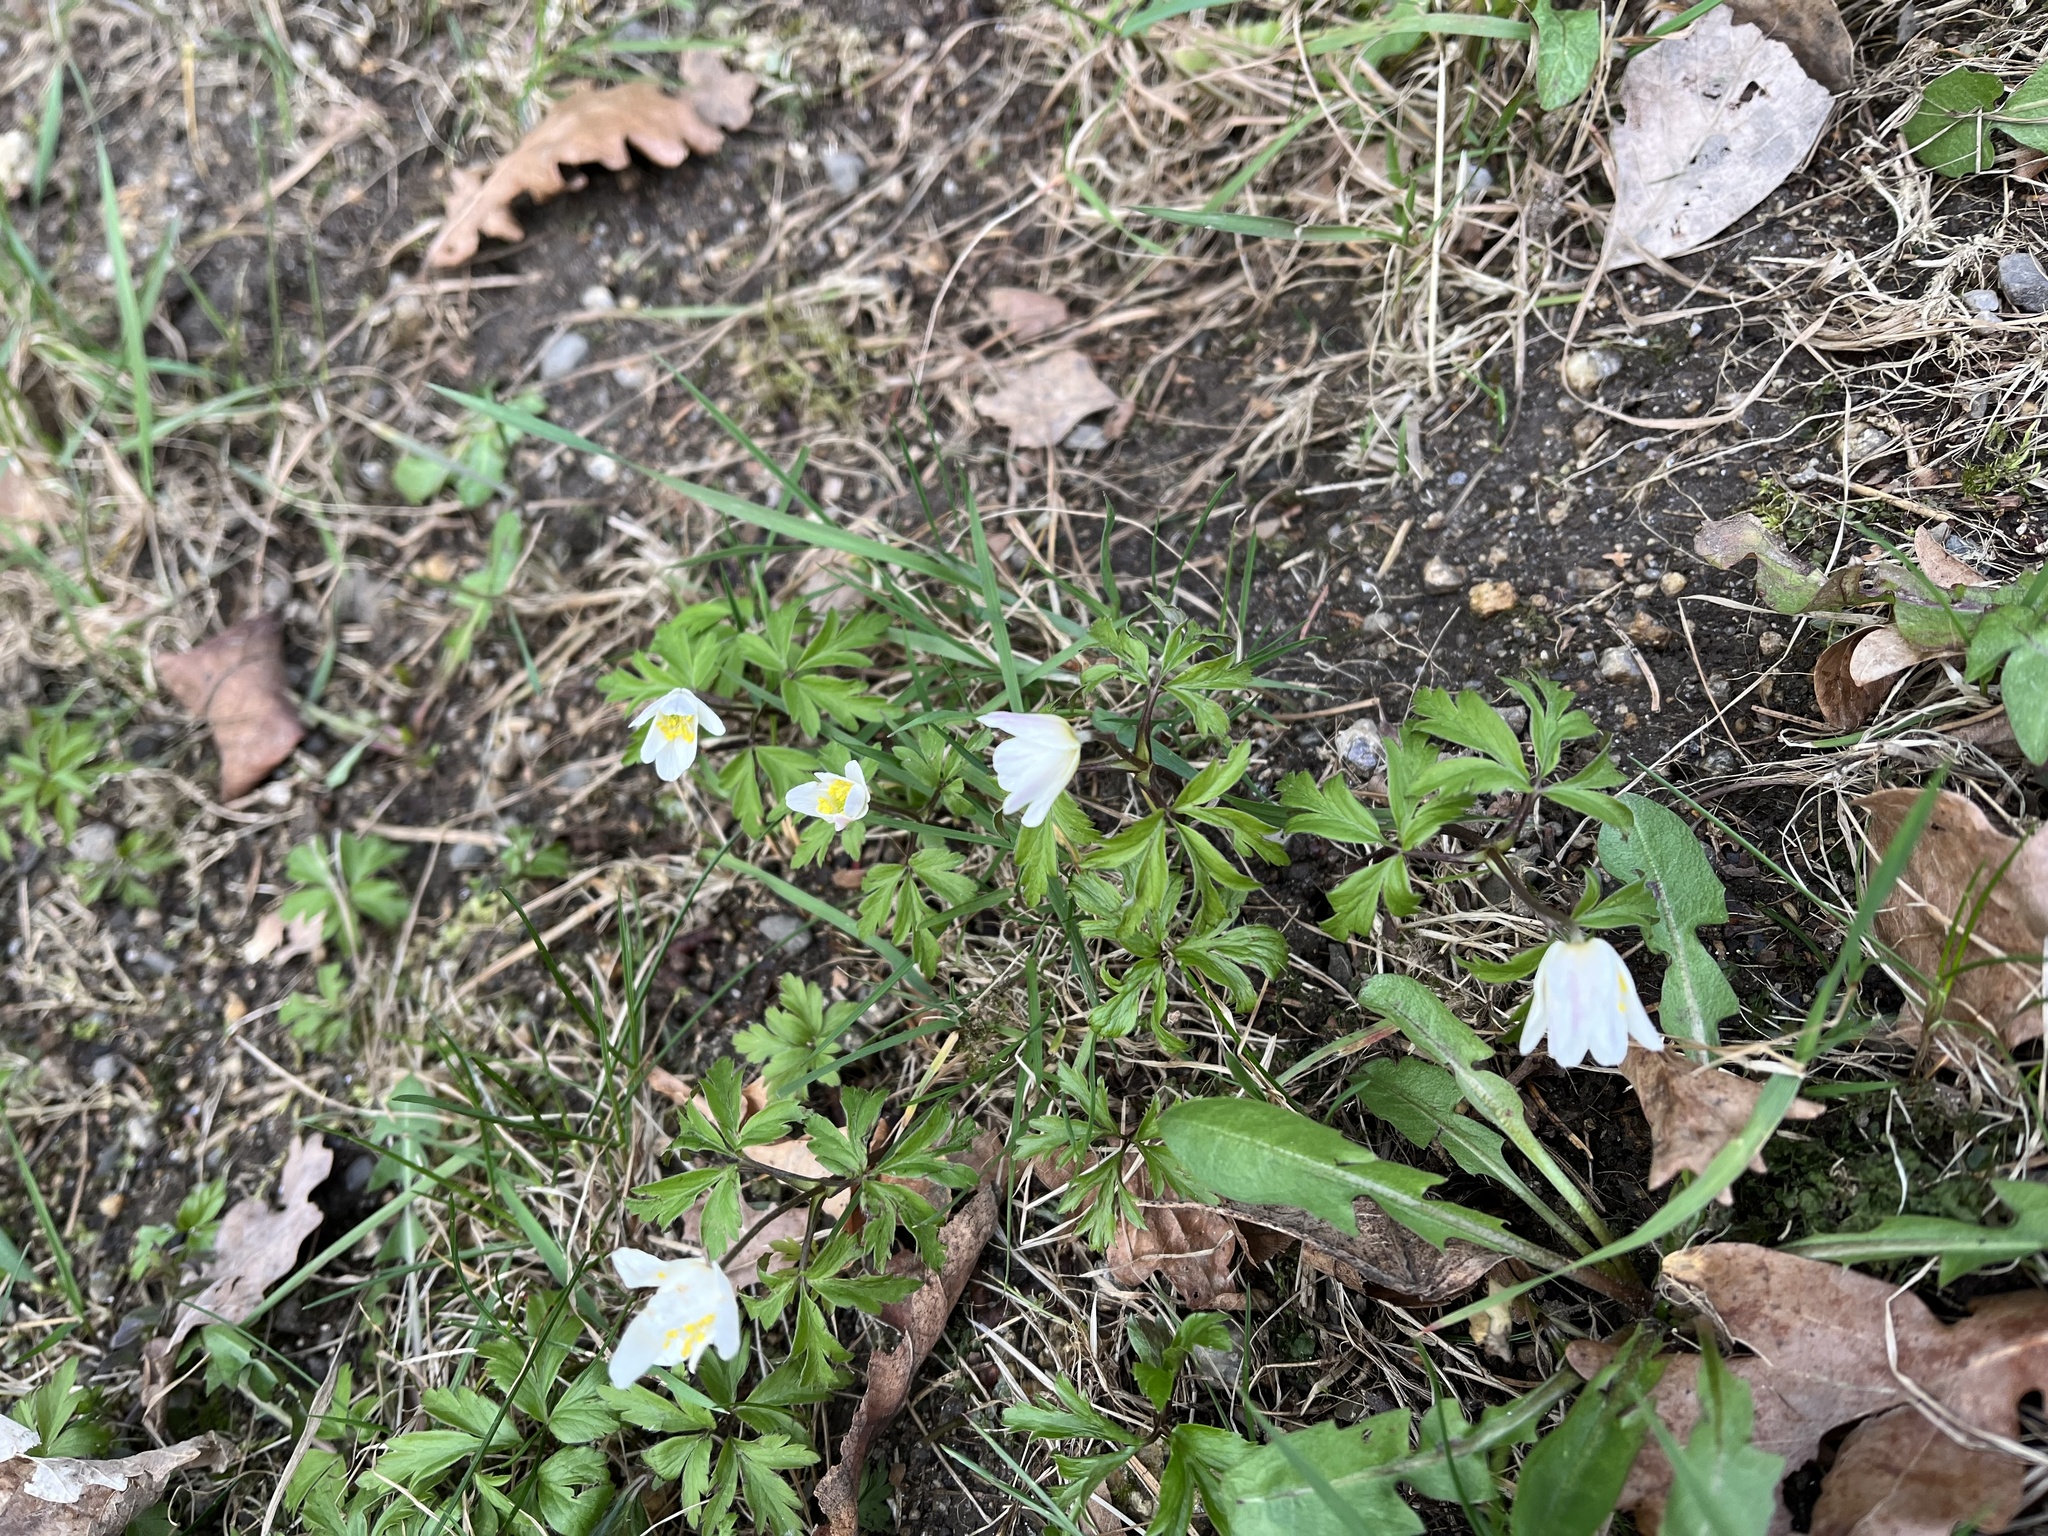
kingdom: Plantae
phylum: Tracheophyta
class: Magnoliopsida
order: Ranunculales
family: Ranunculaceae
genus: Anemone
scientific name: Anemone nemorosa
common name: Wood anemone
